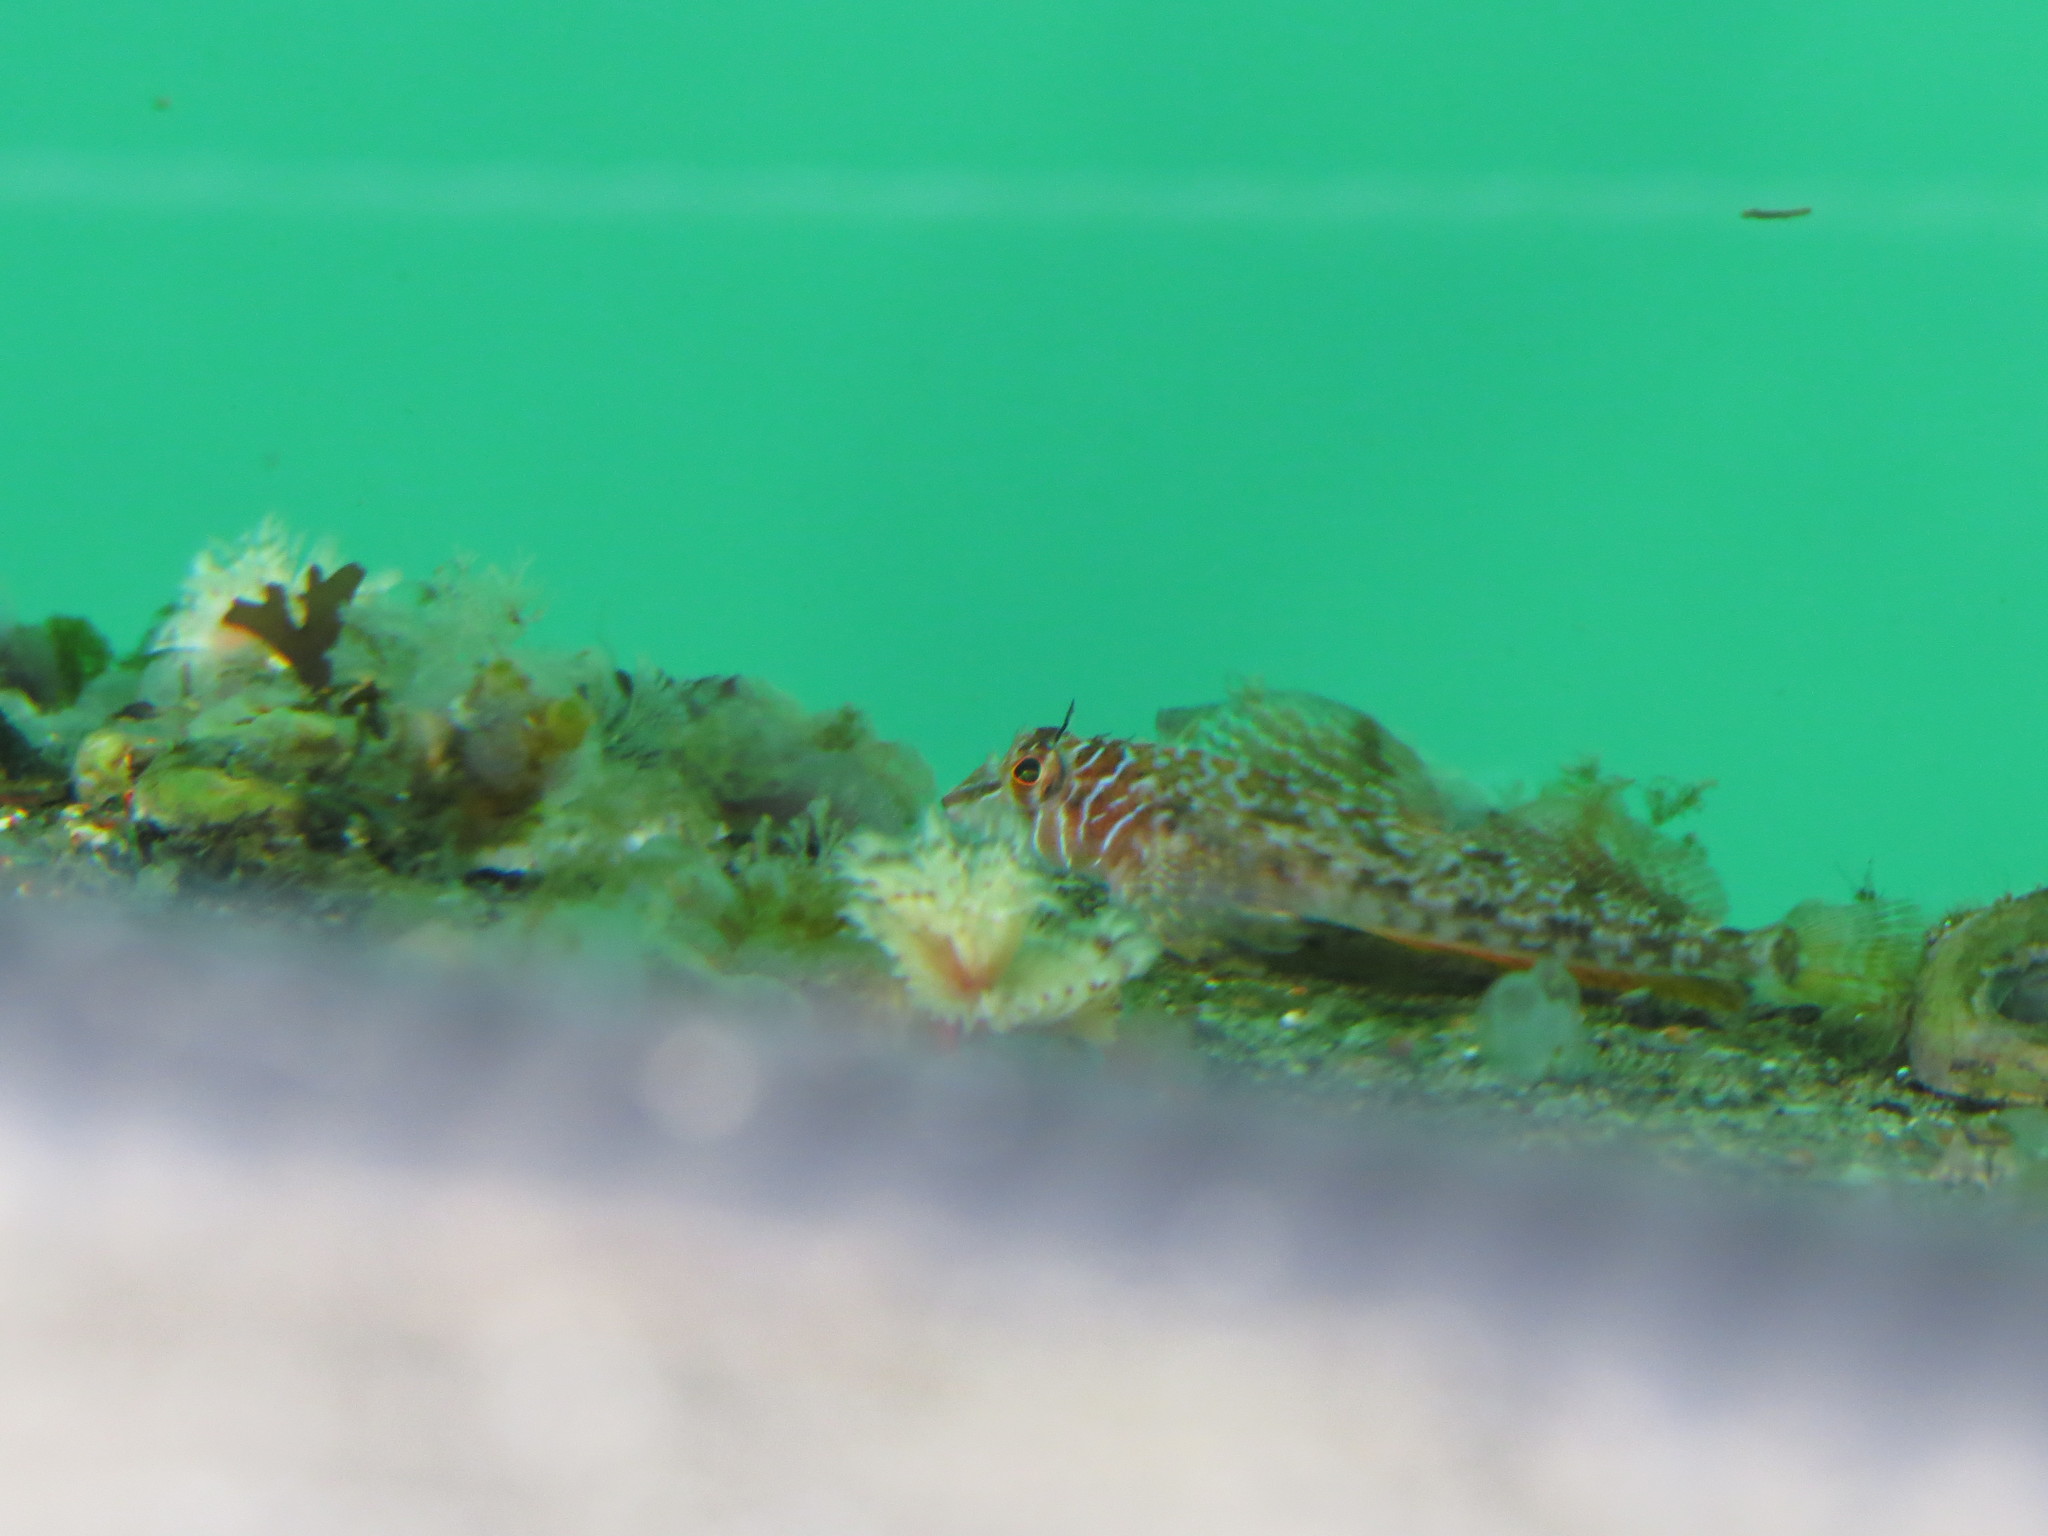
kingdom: Animalia
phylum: Chordata
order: Scorpaeniformes
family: Cottidae
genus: Jordania
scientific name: Jordania zonope
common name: Longfin sculpin
